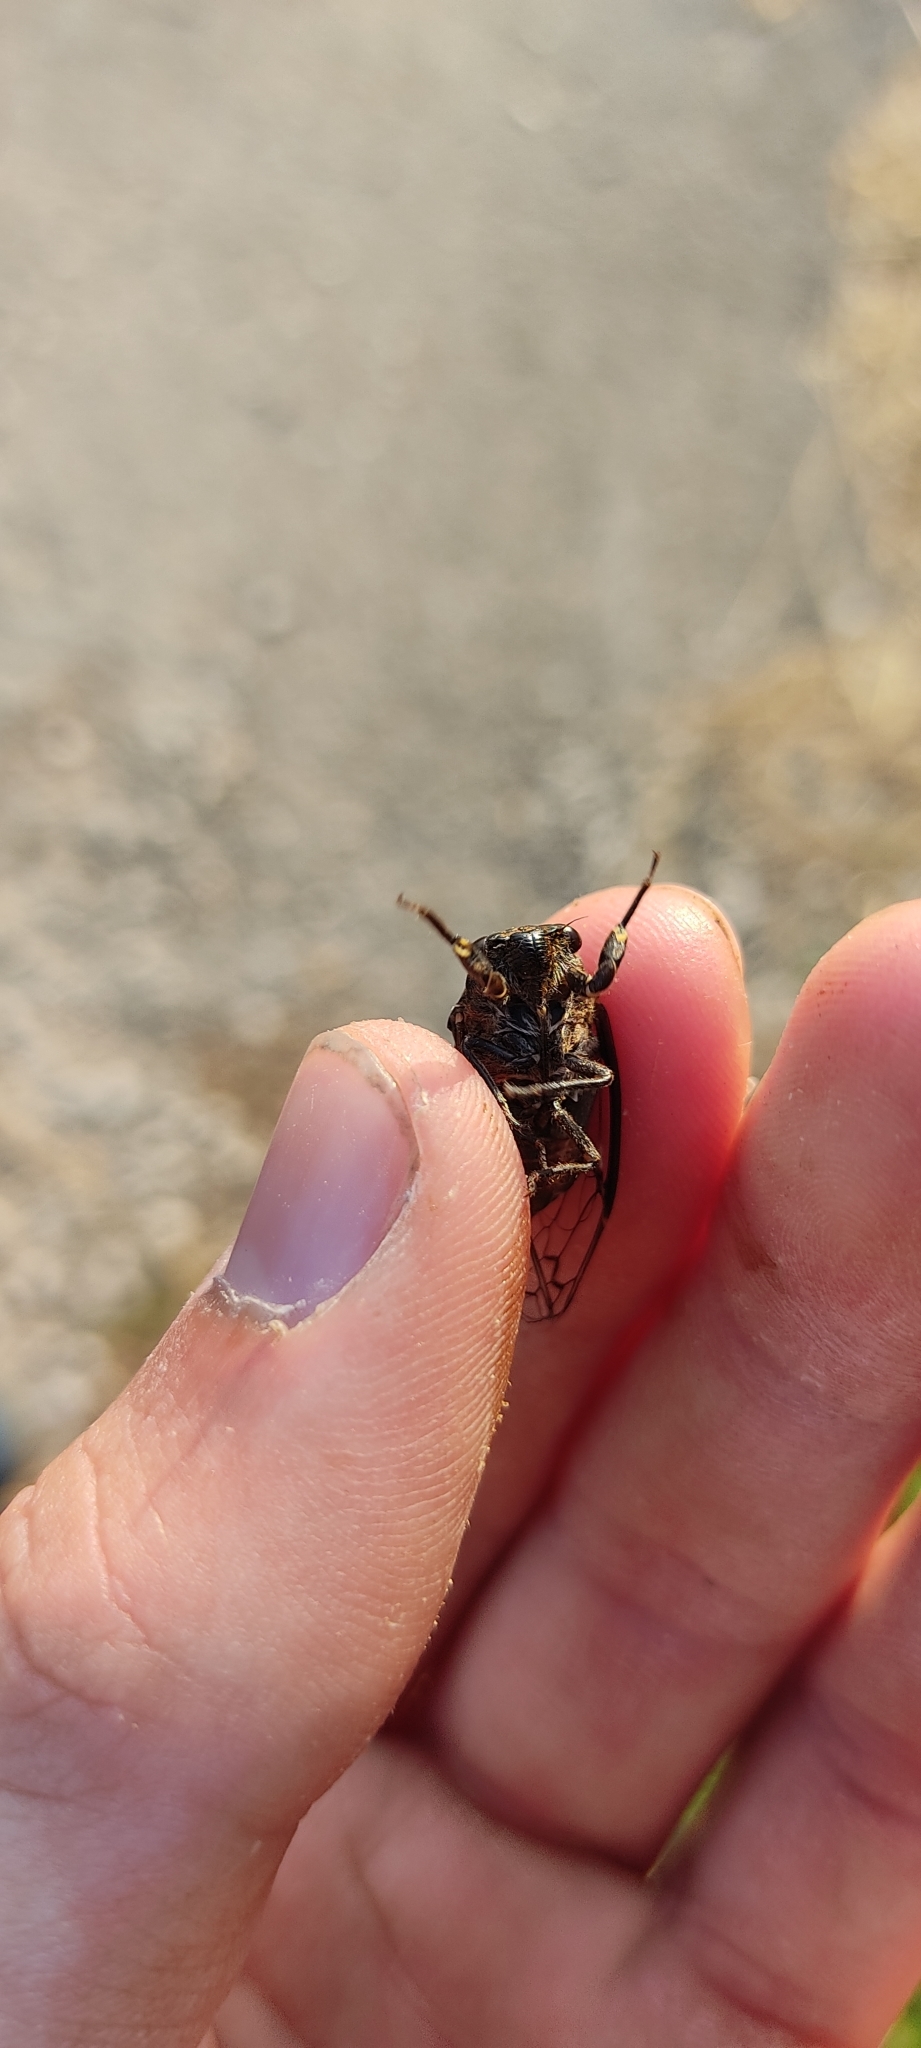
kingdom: Animalia
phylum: Arthropoda
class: Insecta
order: Hemiptera
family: Cicadidae
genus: Cicadatra
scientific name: Cicadatra atra
